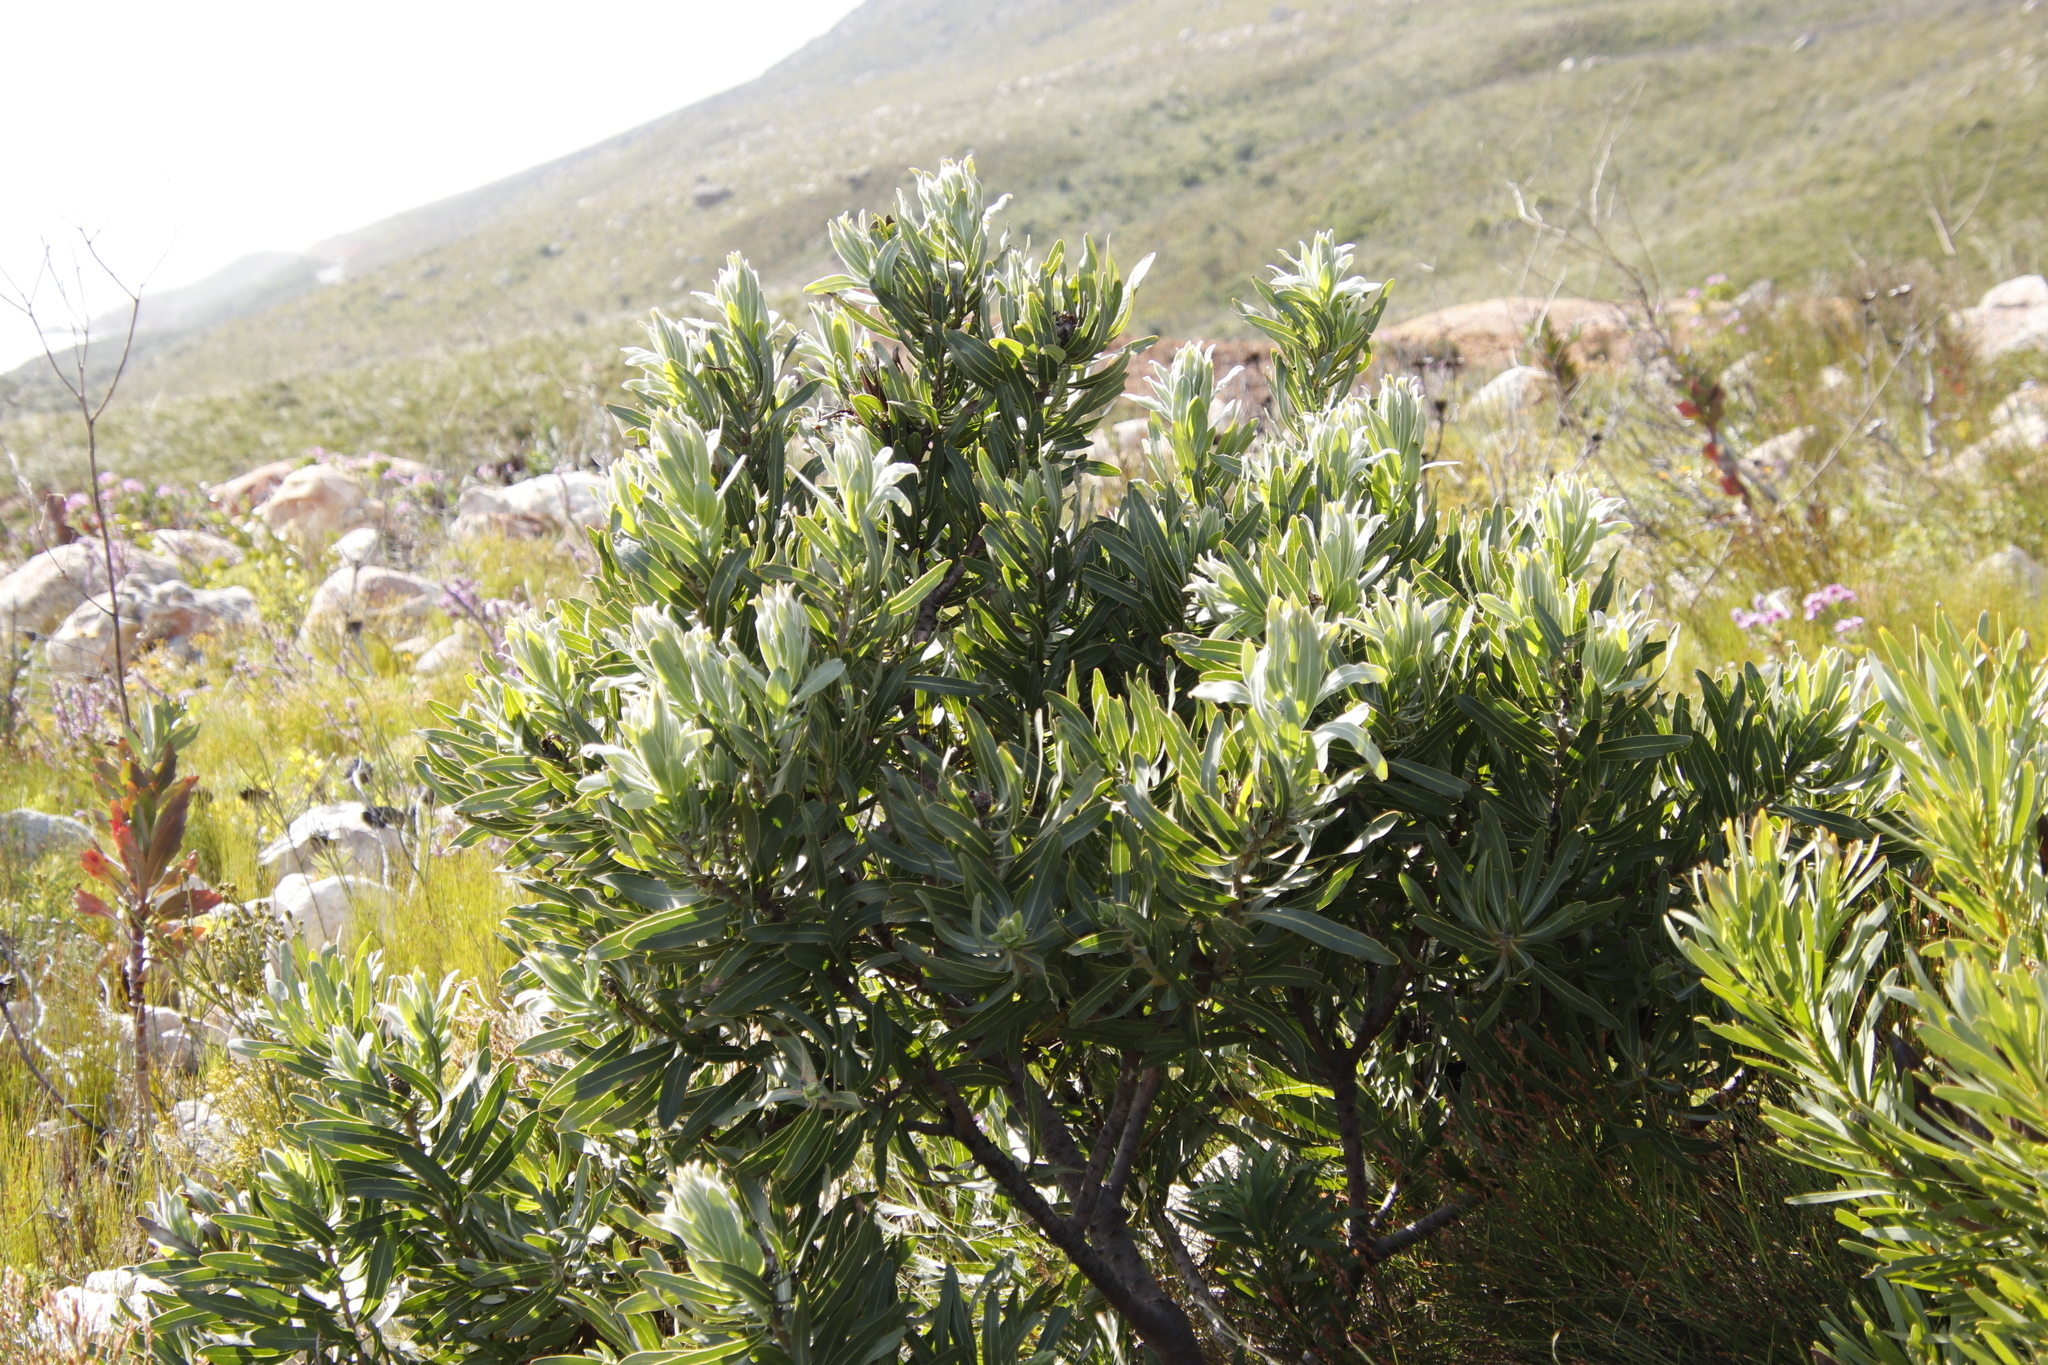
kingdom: Plantae
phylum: Tracheophyta
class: Magnoliopsida
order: Proteales
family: Proteaceae
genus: Protea
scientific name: Protea laurifolia
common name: Grey-leaf sugarbsh
